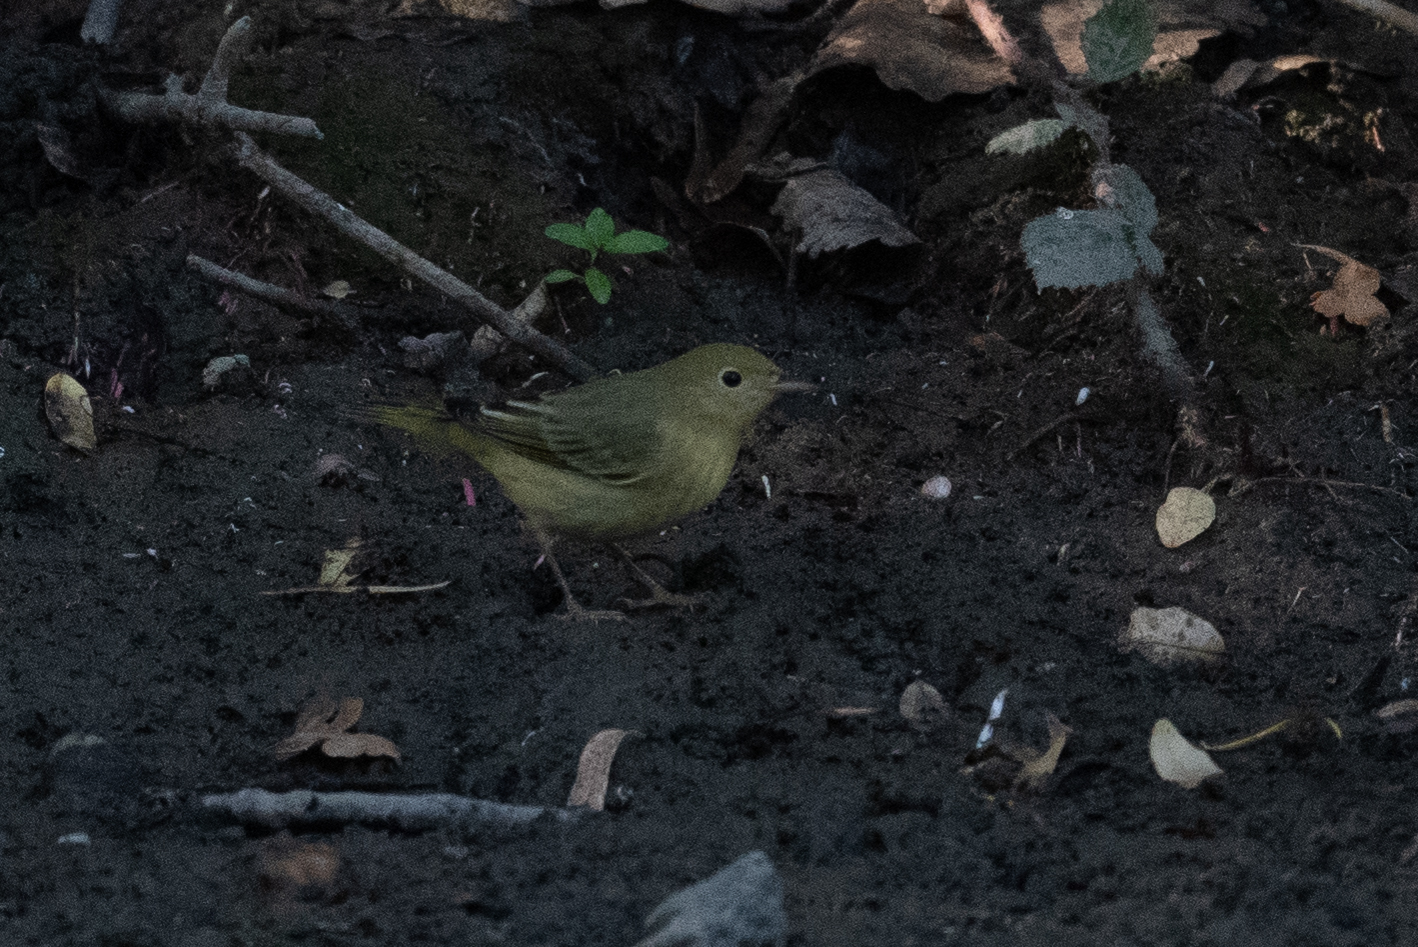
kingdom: Animalia
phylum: Chordata
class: Aves
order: Passeriformes
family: Parulidae
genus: Setophaga
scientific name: Setophaga petechia
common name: Yellow warbler
